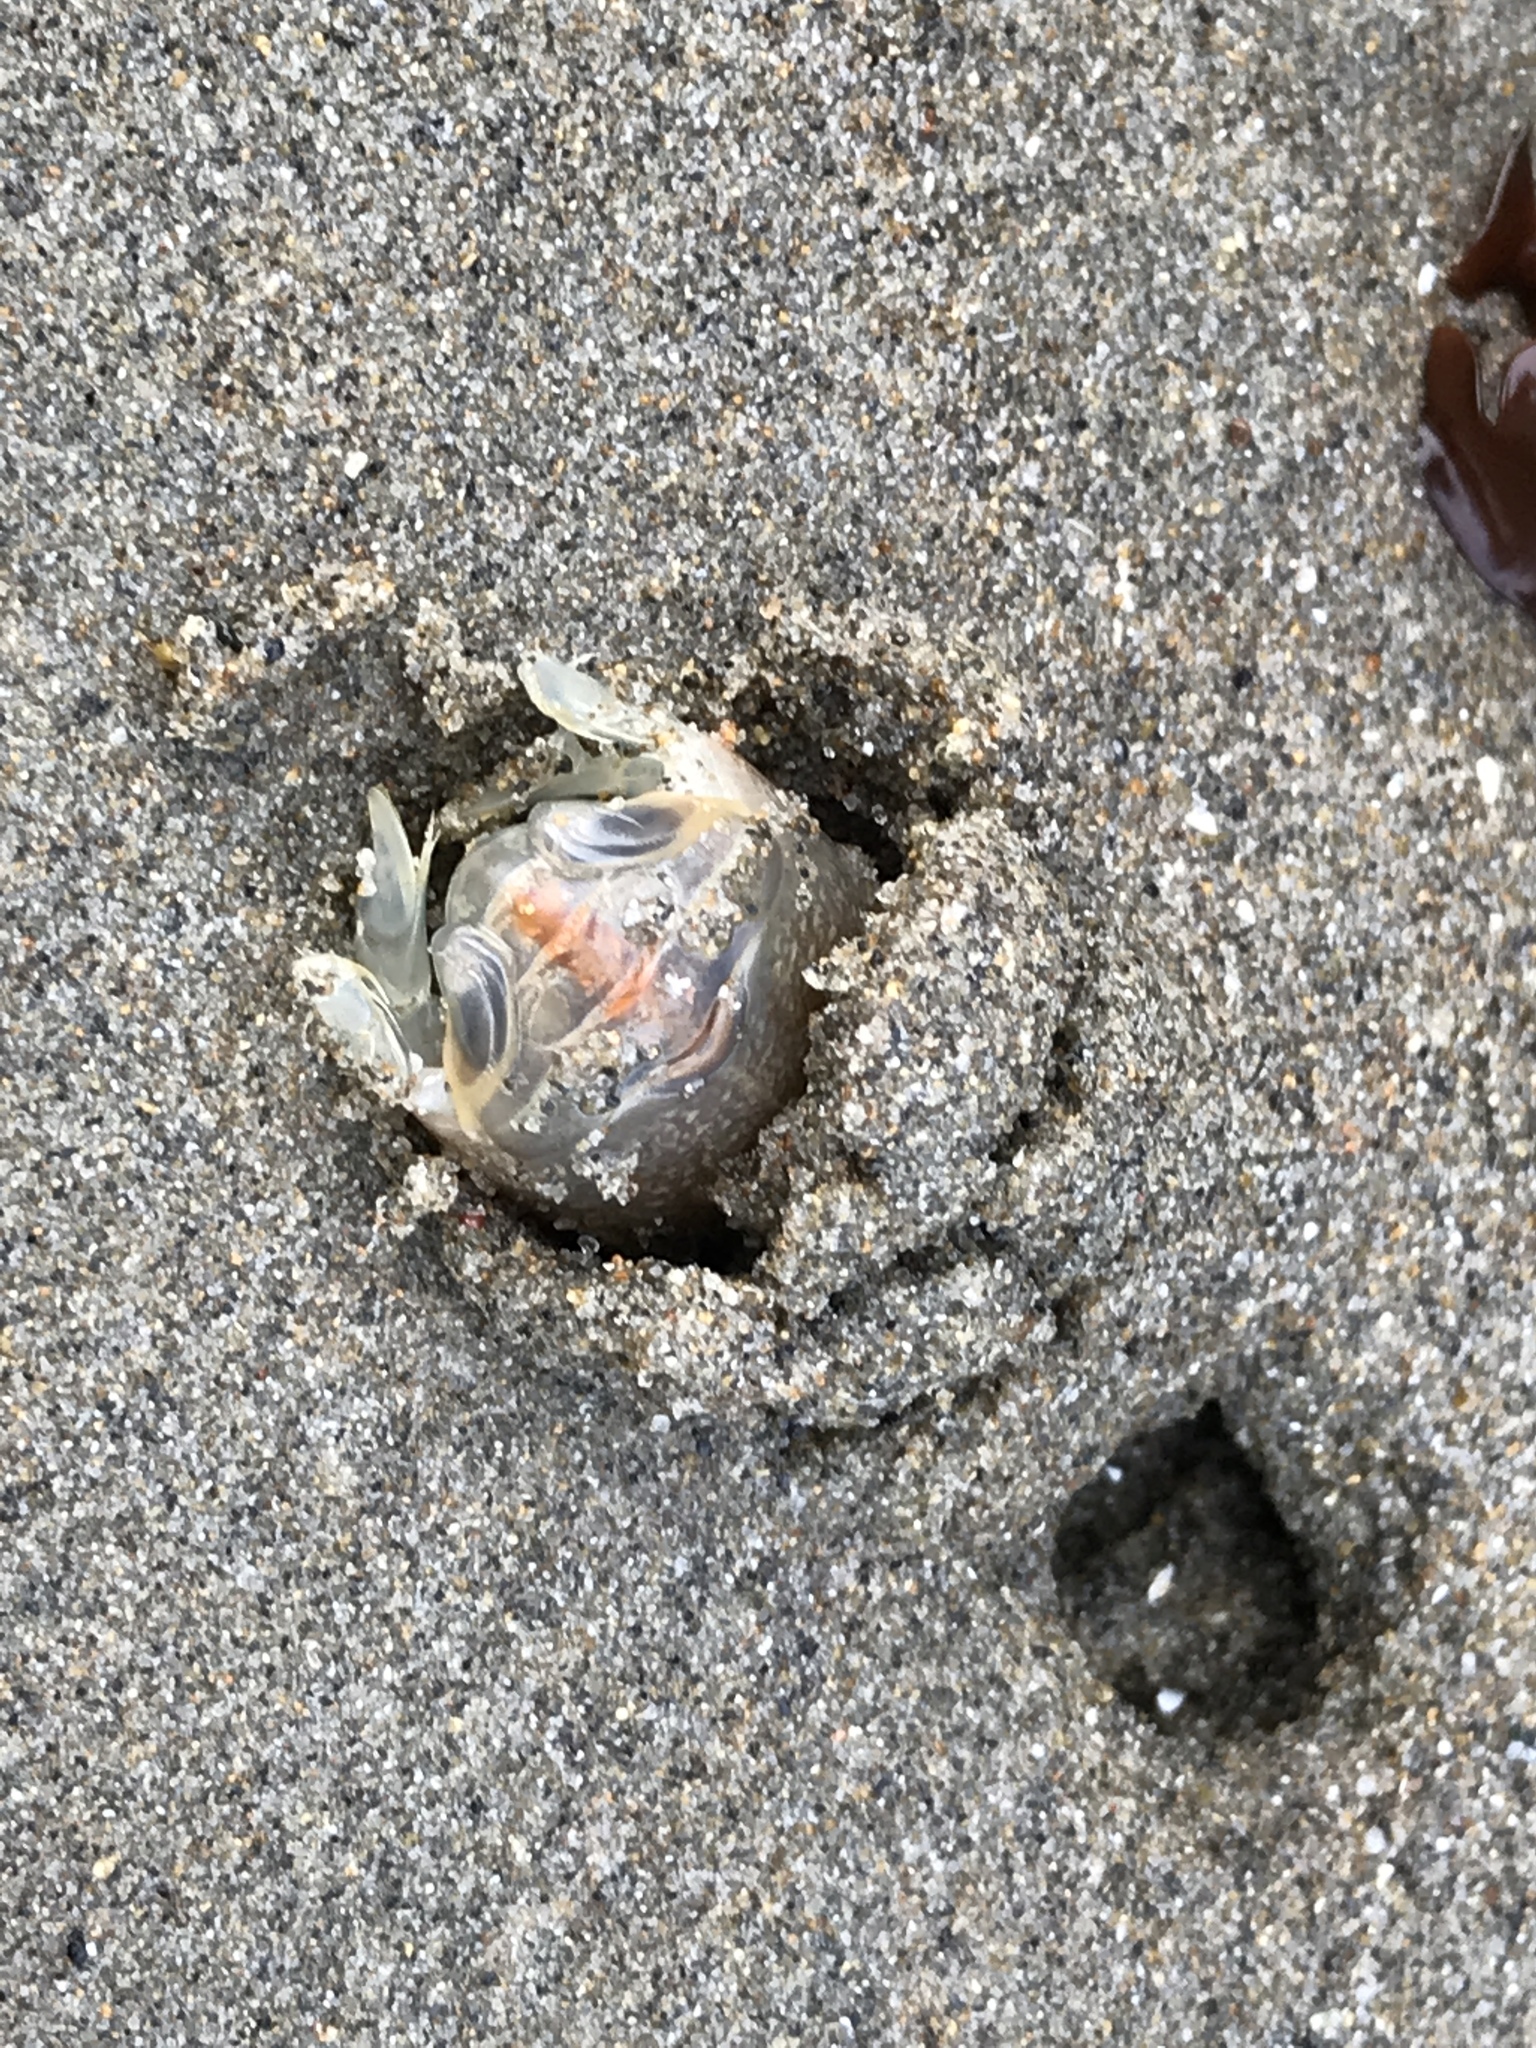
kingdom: Animalia
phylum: Arthropoda
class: Malacostraca
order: Decapoda
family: Hippidae
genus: Emerita
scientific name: Emerita analoga
